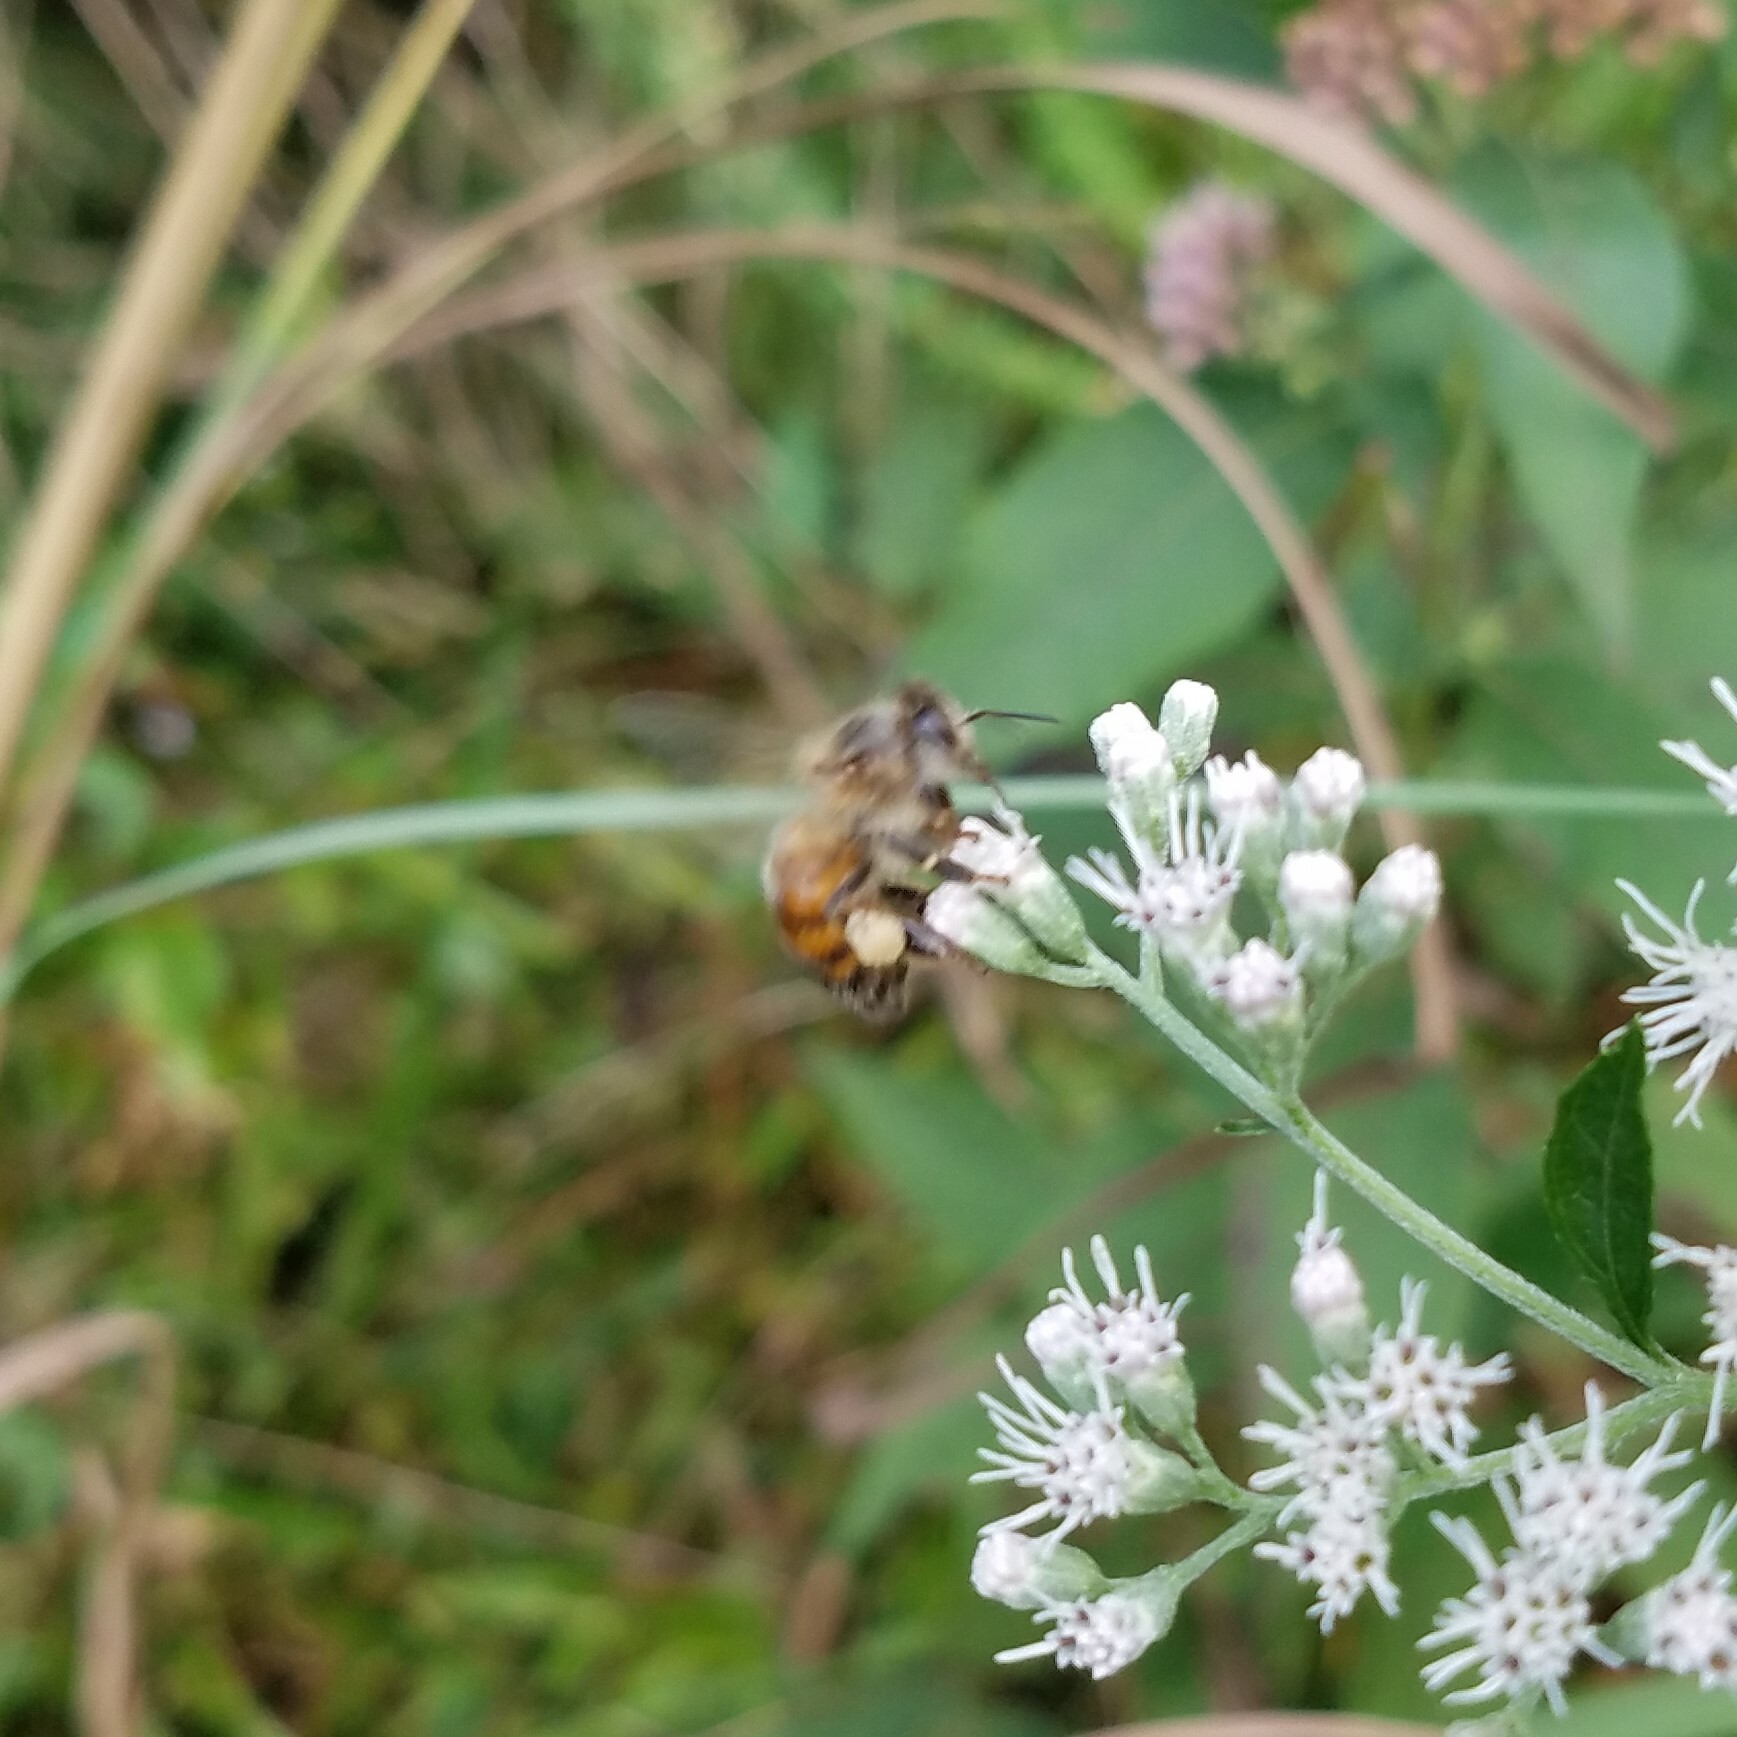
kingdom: Animalia
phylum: Arthropoda
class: Insecta
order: Hymenoptera
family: Apidae
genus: Apis
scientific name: Apis mellifera
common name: Honey bee
